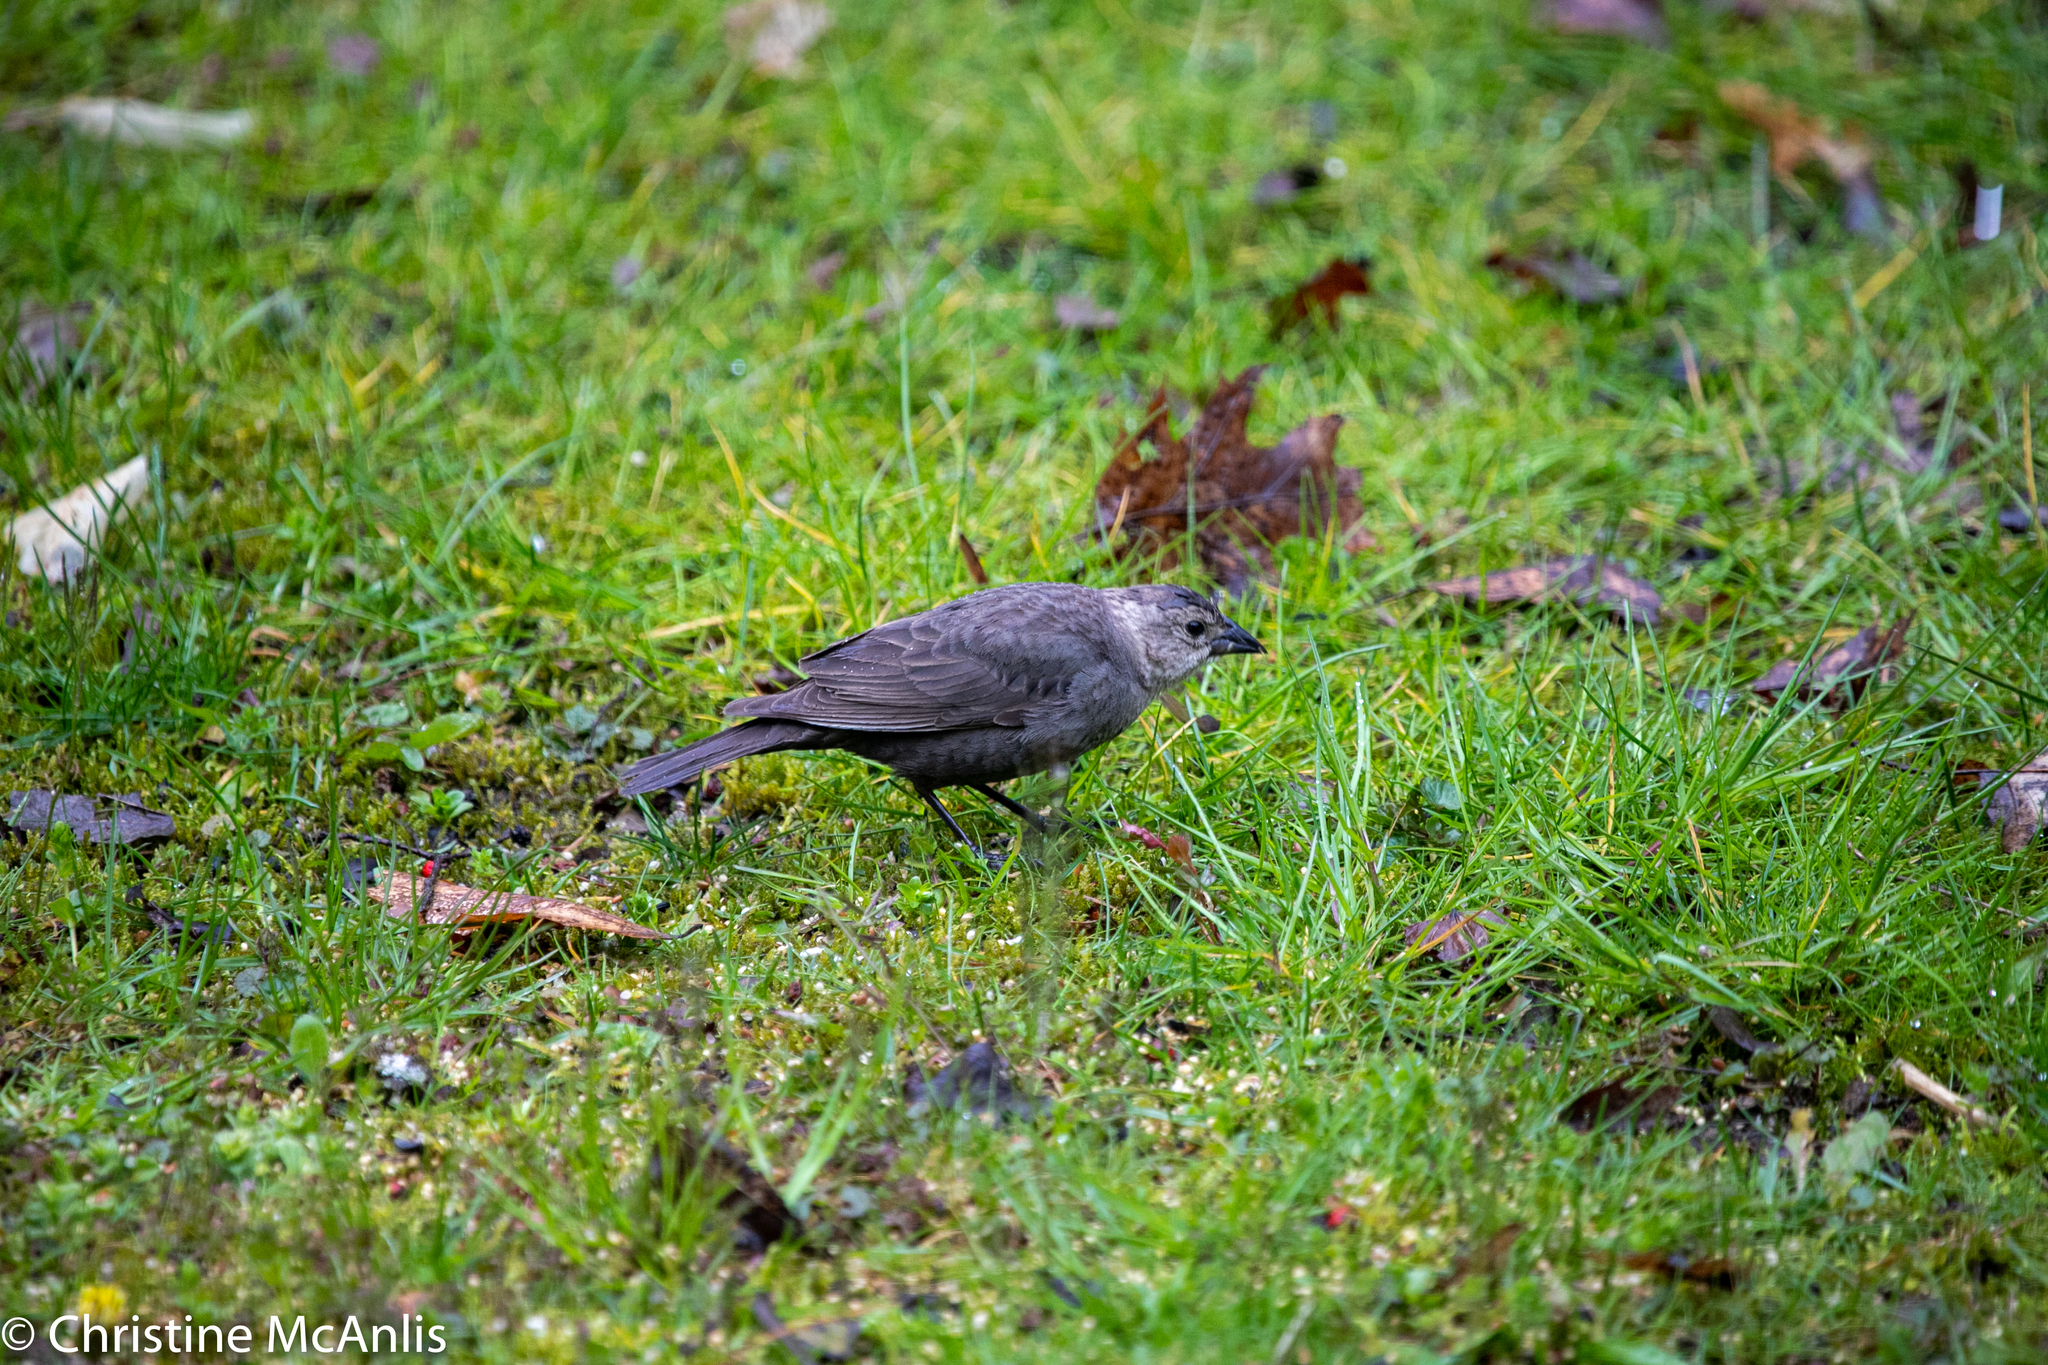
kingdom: Animalia
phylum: Chordata
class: Aves
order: Passeriformes
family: Icteridae
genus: Molothrus
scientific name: Molothrus ater
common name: Brown-headed cowbird
